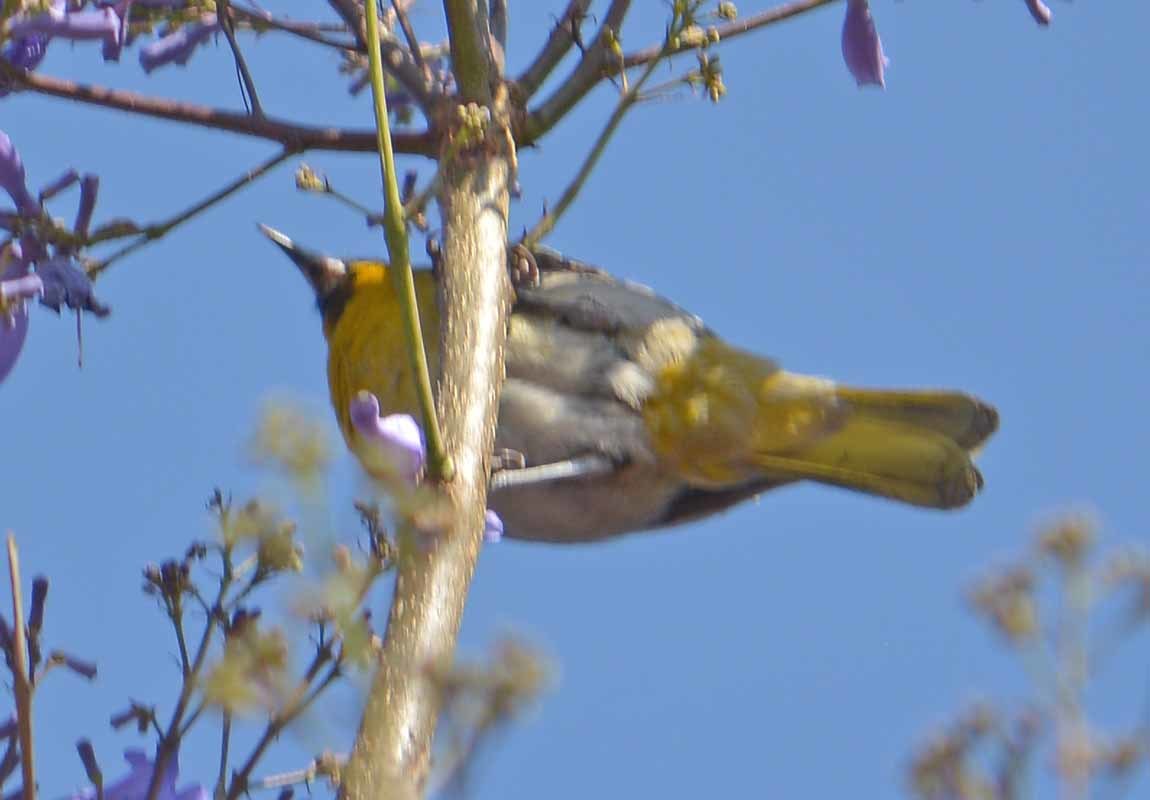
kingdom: Animalia
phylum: Chordata
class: Aves
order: Passeriformes
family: Icteridae
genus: Icterus
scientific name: Icterus abeillei
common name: Black-backed oriole
